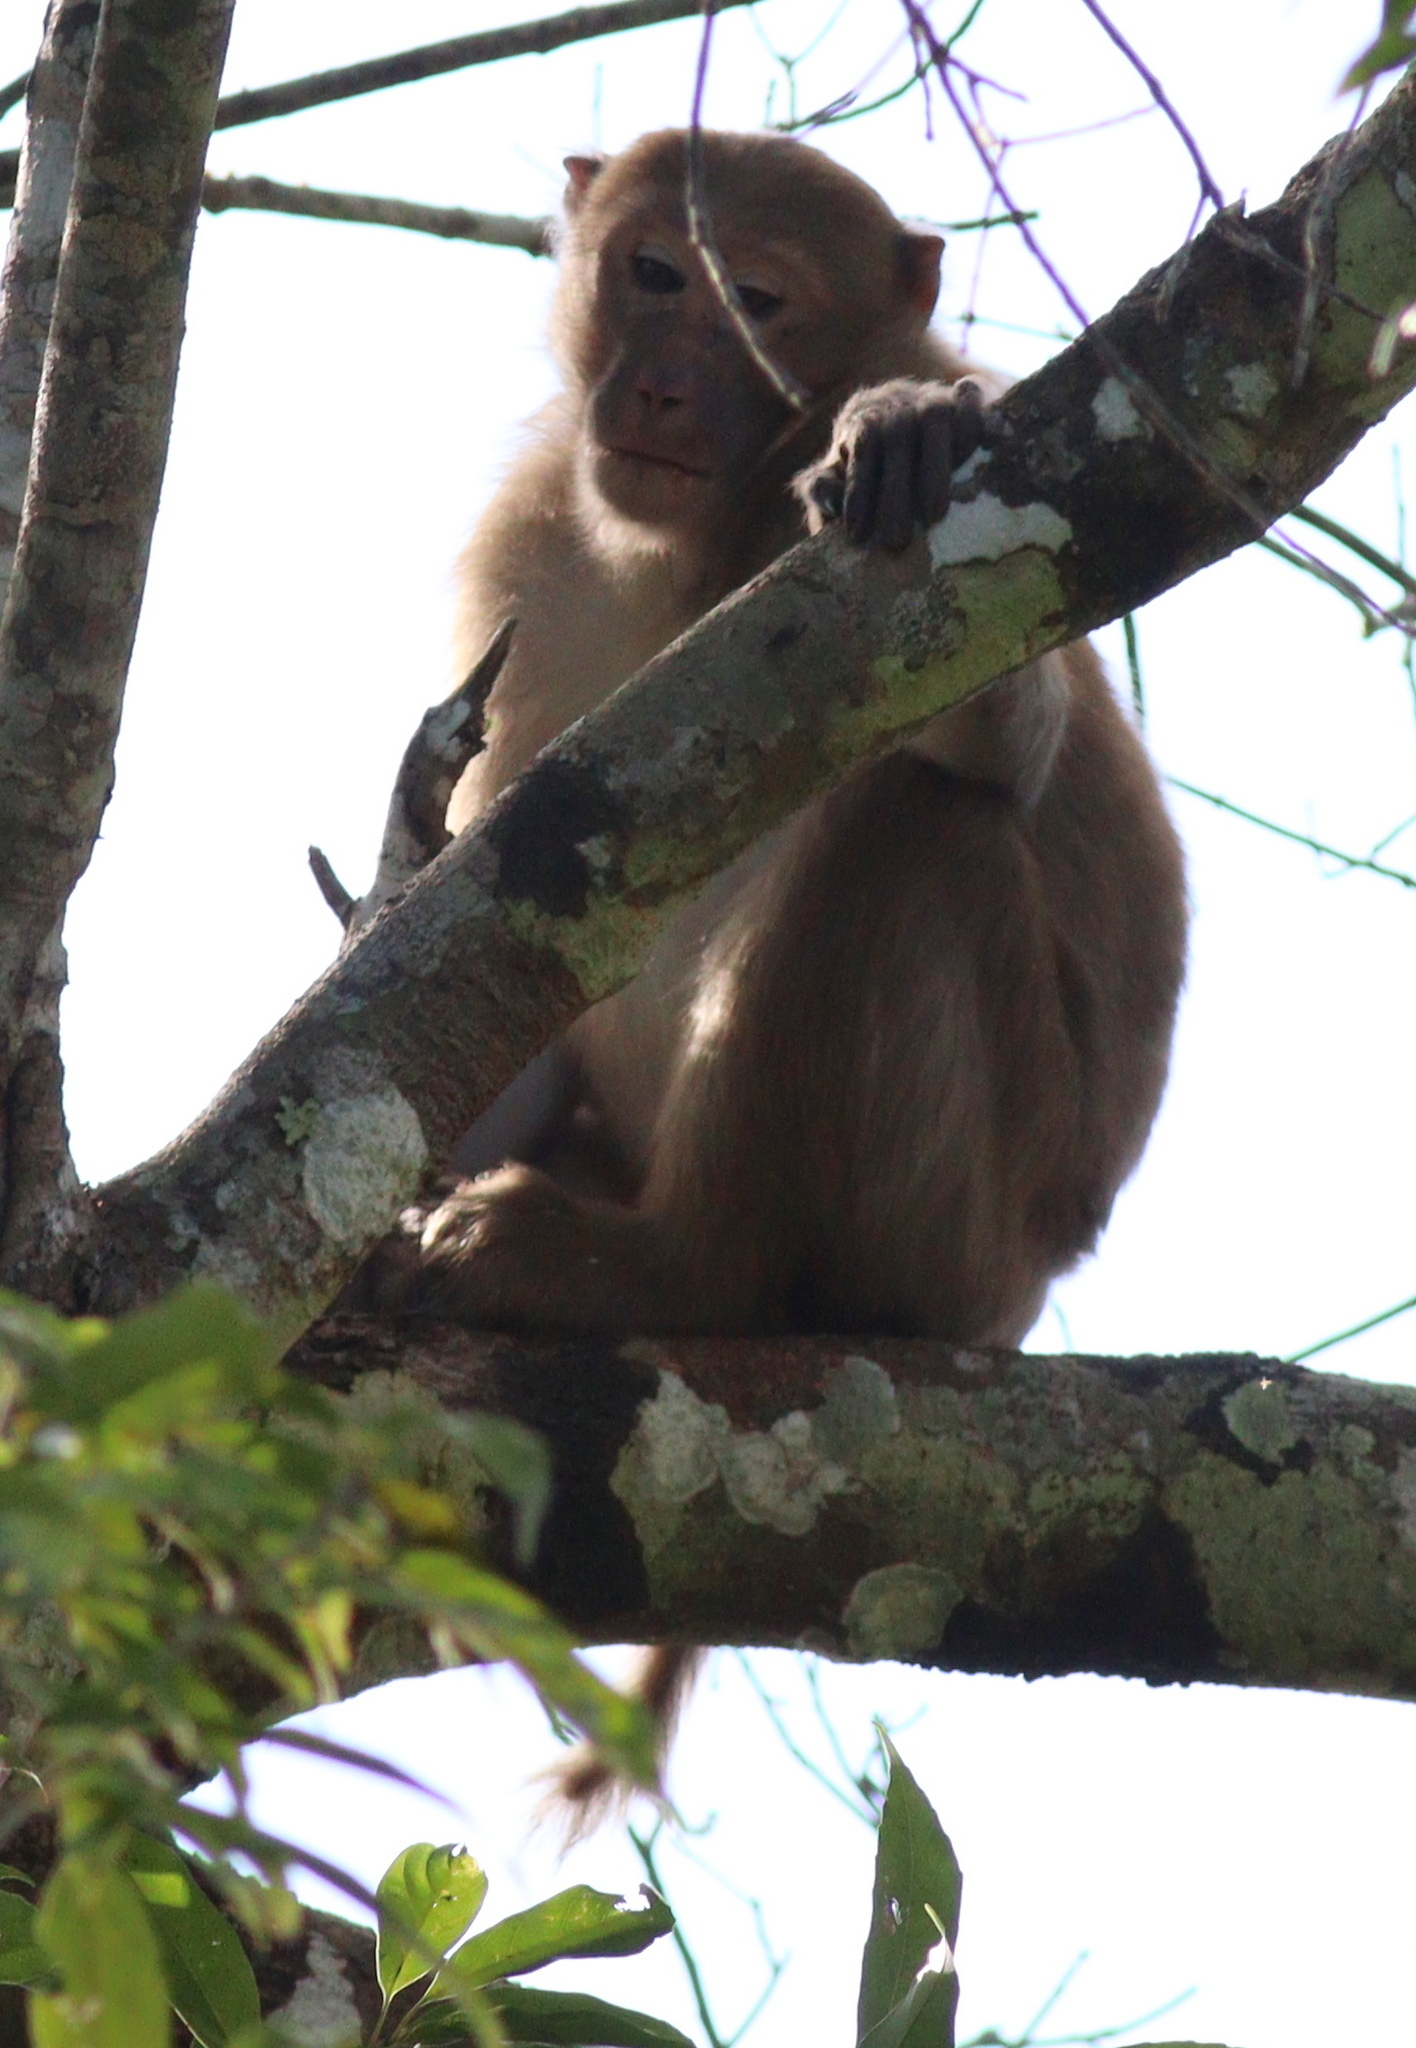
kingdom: Animalia
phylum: Chordata
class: Mammalia
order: Primates
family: Cercopithecidae
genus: Macaca
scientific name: Macaca assamensis
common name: Assam macaque
